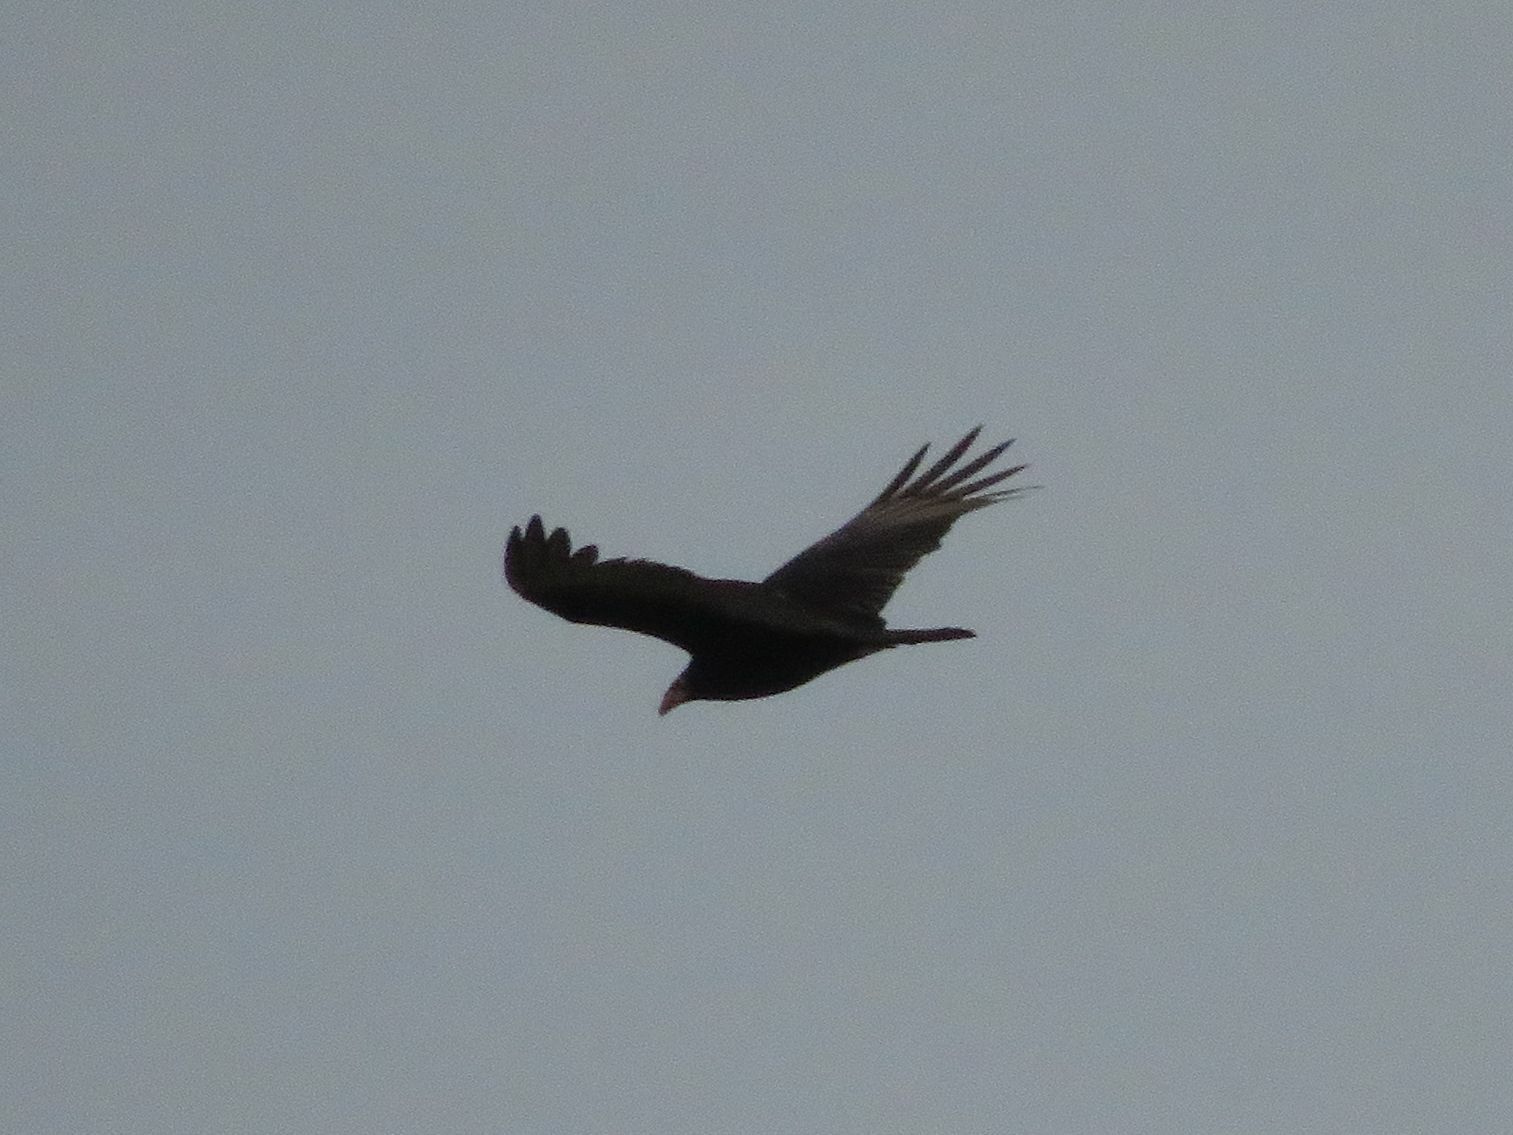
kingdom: Animalia
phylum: Chordata
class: Aves
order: Accipitriformes
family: Cathartidae
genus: Cathartes
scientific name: Cathartes aura
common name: Turkey vulture
